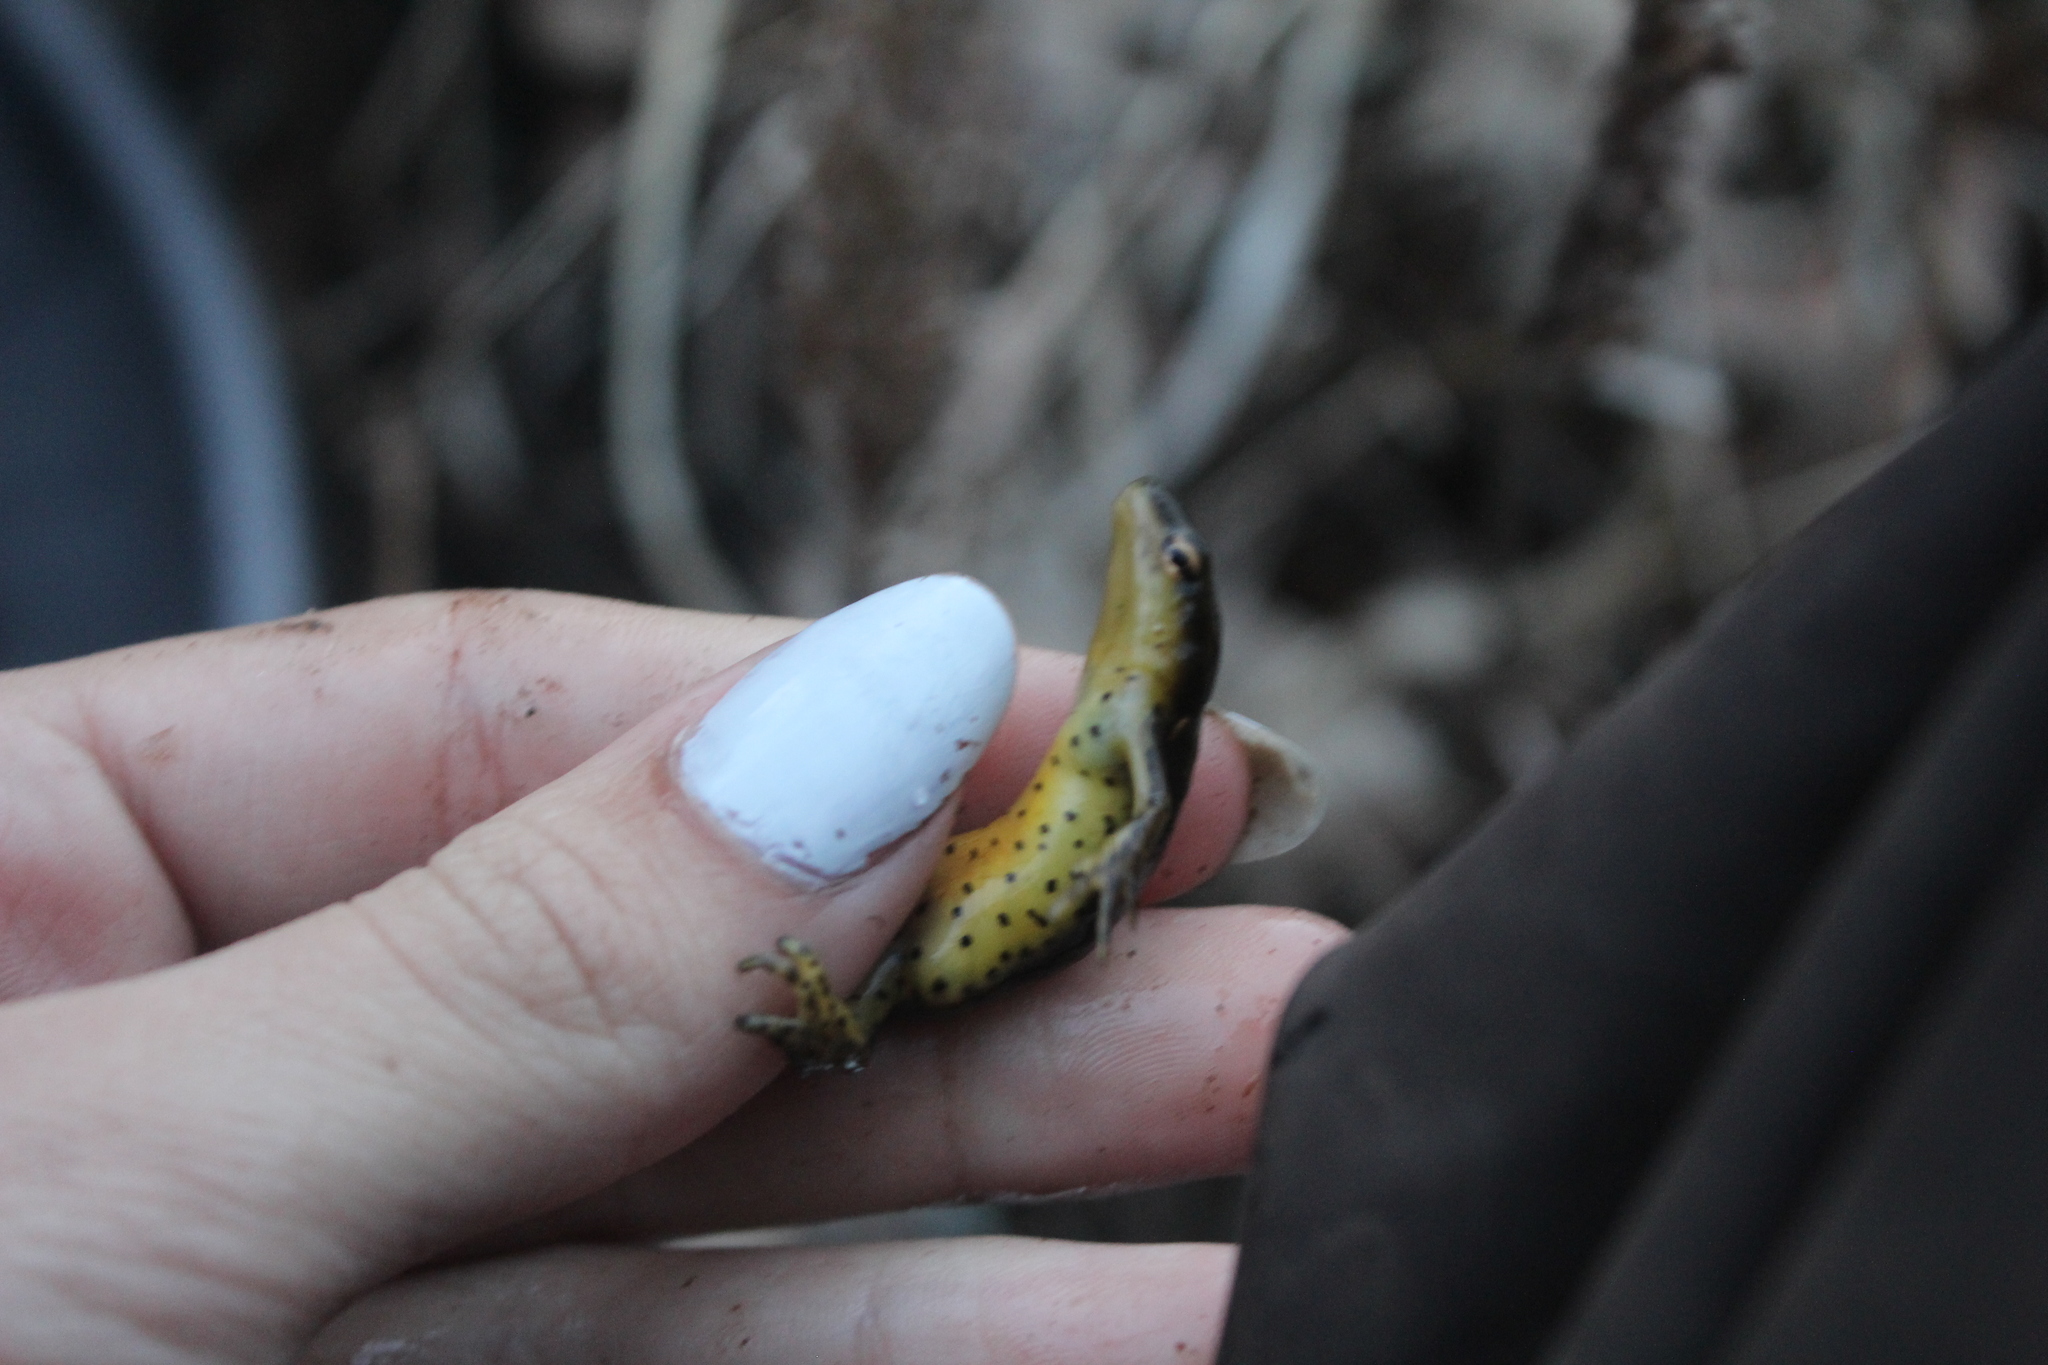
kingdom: Animalia
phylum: Chordata
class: Amphibia
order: Caudata
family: Salamandridae
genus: Notophthalmus
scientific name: Notophthalmus viridescens
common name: Eastern newt
